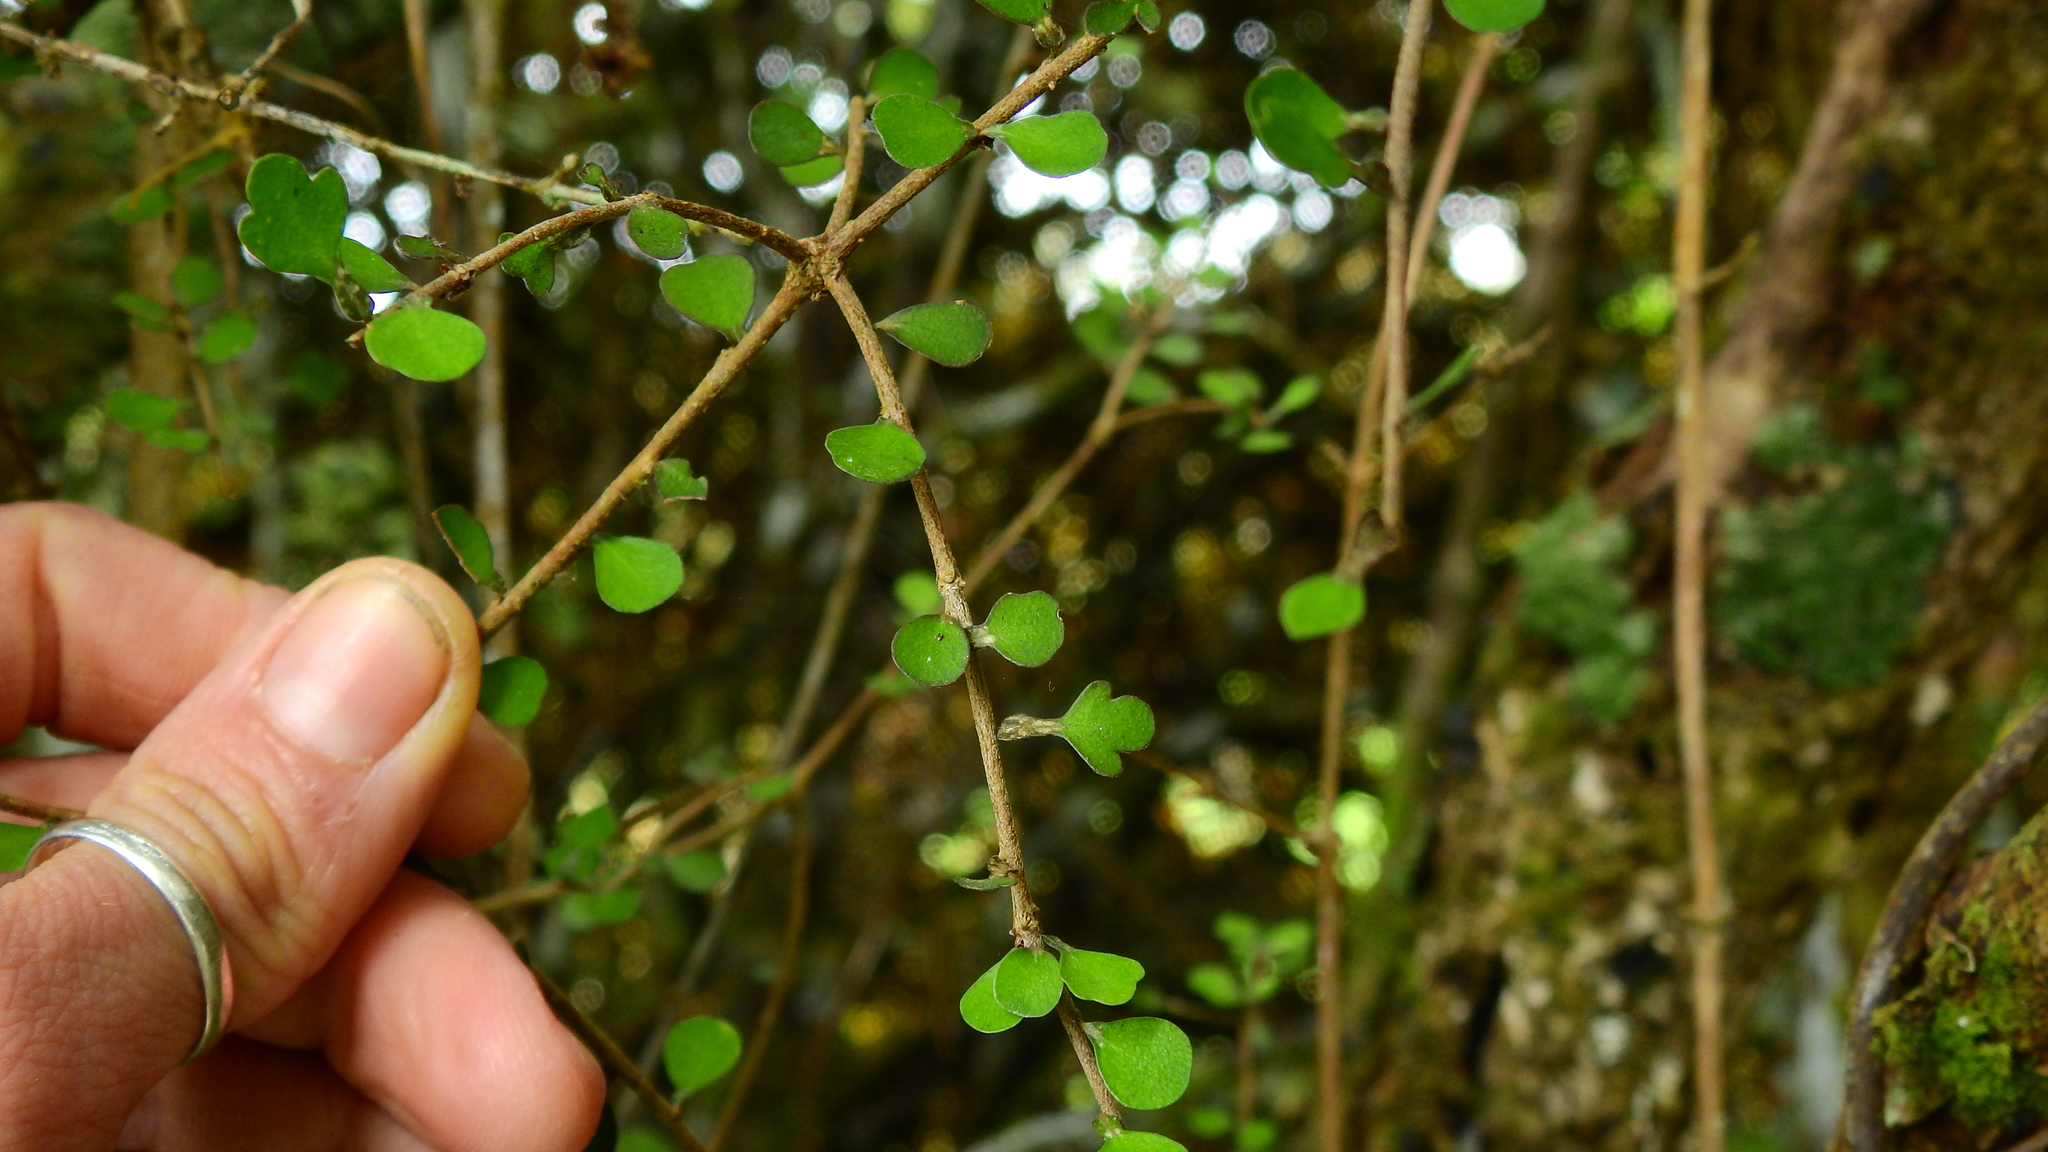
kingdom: Plantae
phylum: Tracheophyta
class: Magnoliopsida
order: Apiales
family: Pittosporaceae
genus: Pittosporum
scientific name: Pittosporum obcordatum
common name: Heart-leaved kohuhu
